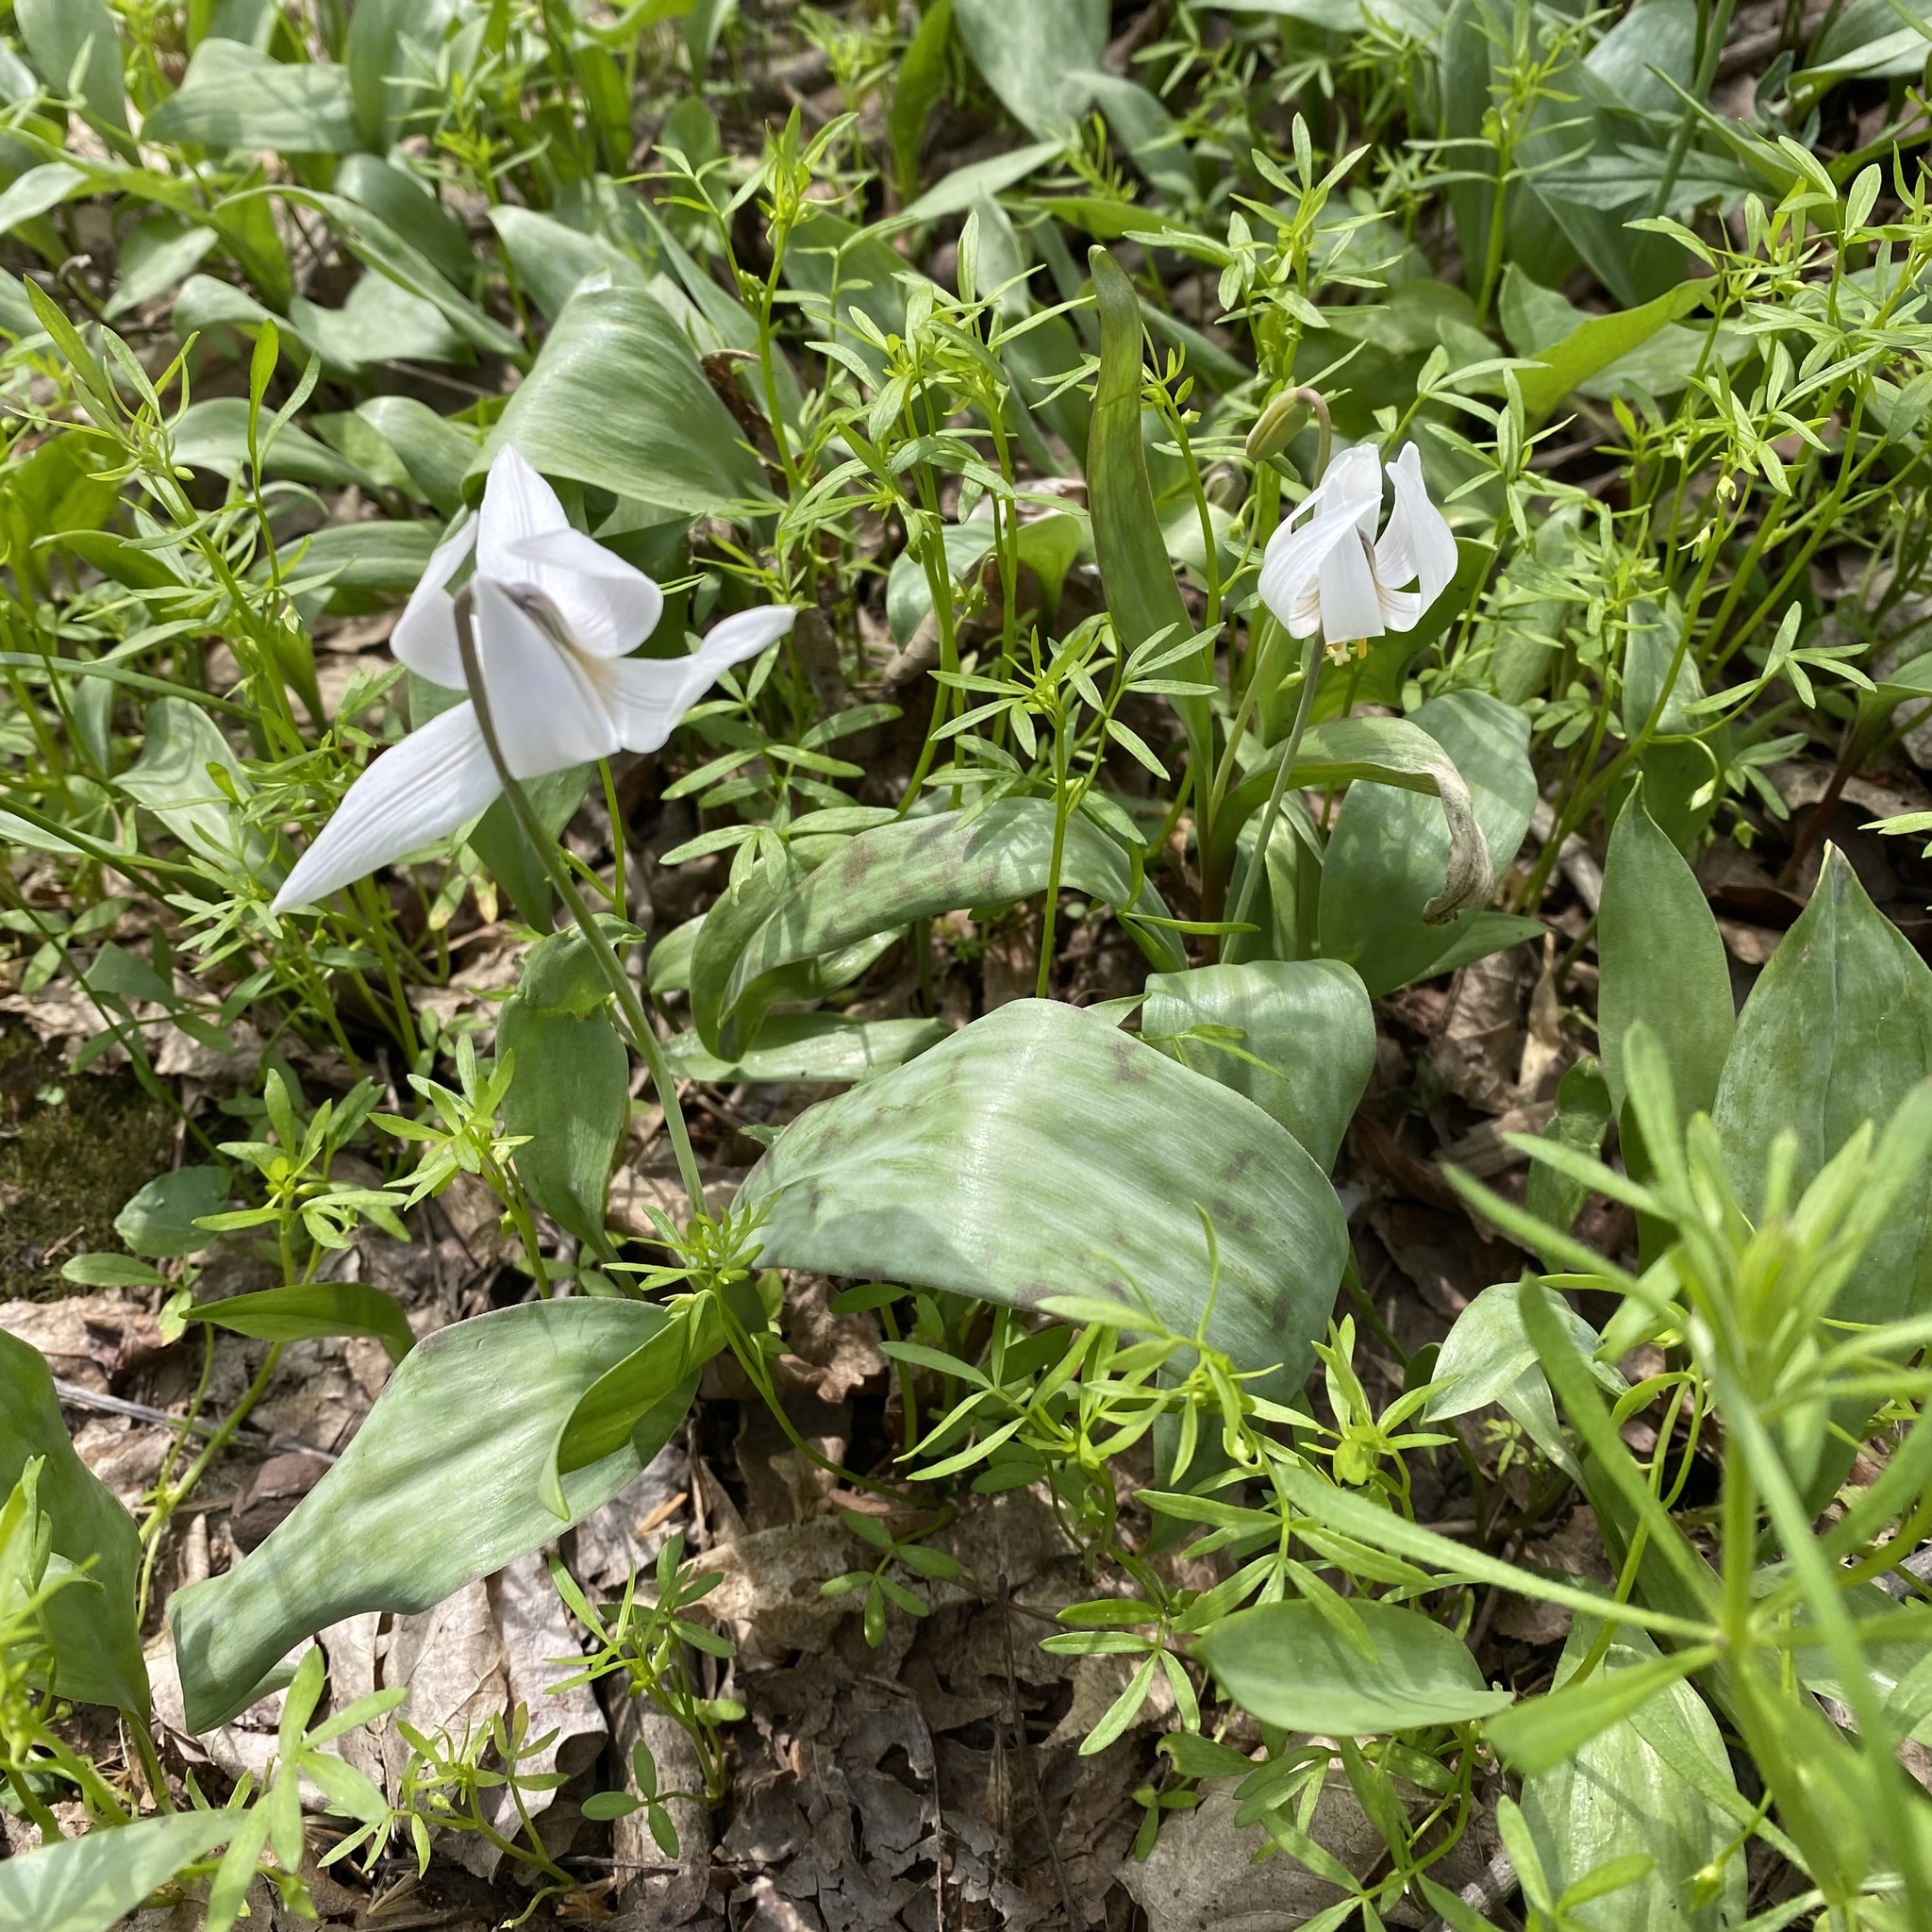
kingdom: Plantae
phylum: Tracheophyta
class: Liliopsida
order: Liliales
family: Liliaceae
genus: Erythronium
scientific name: Erythronium albidum
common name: White trout-lily
